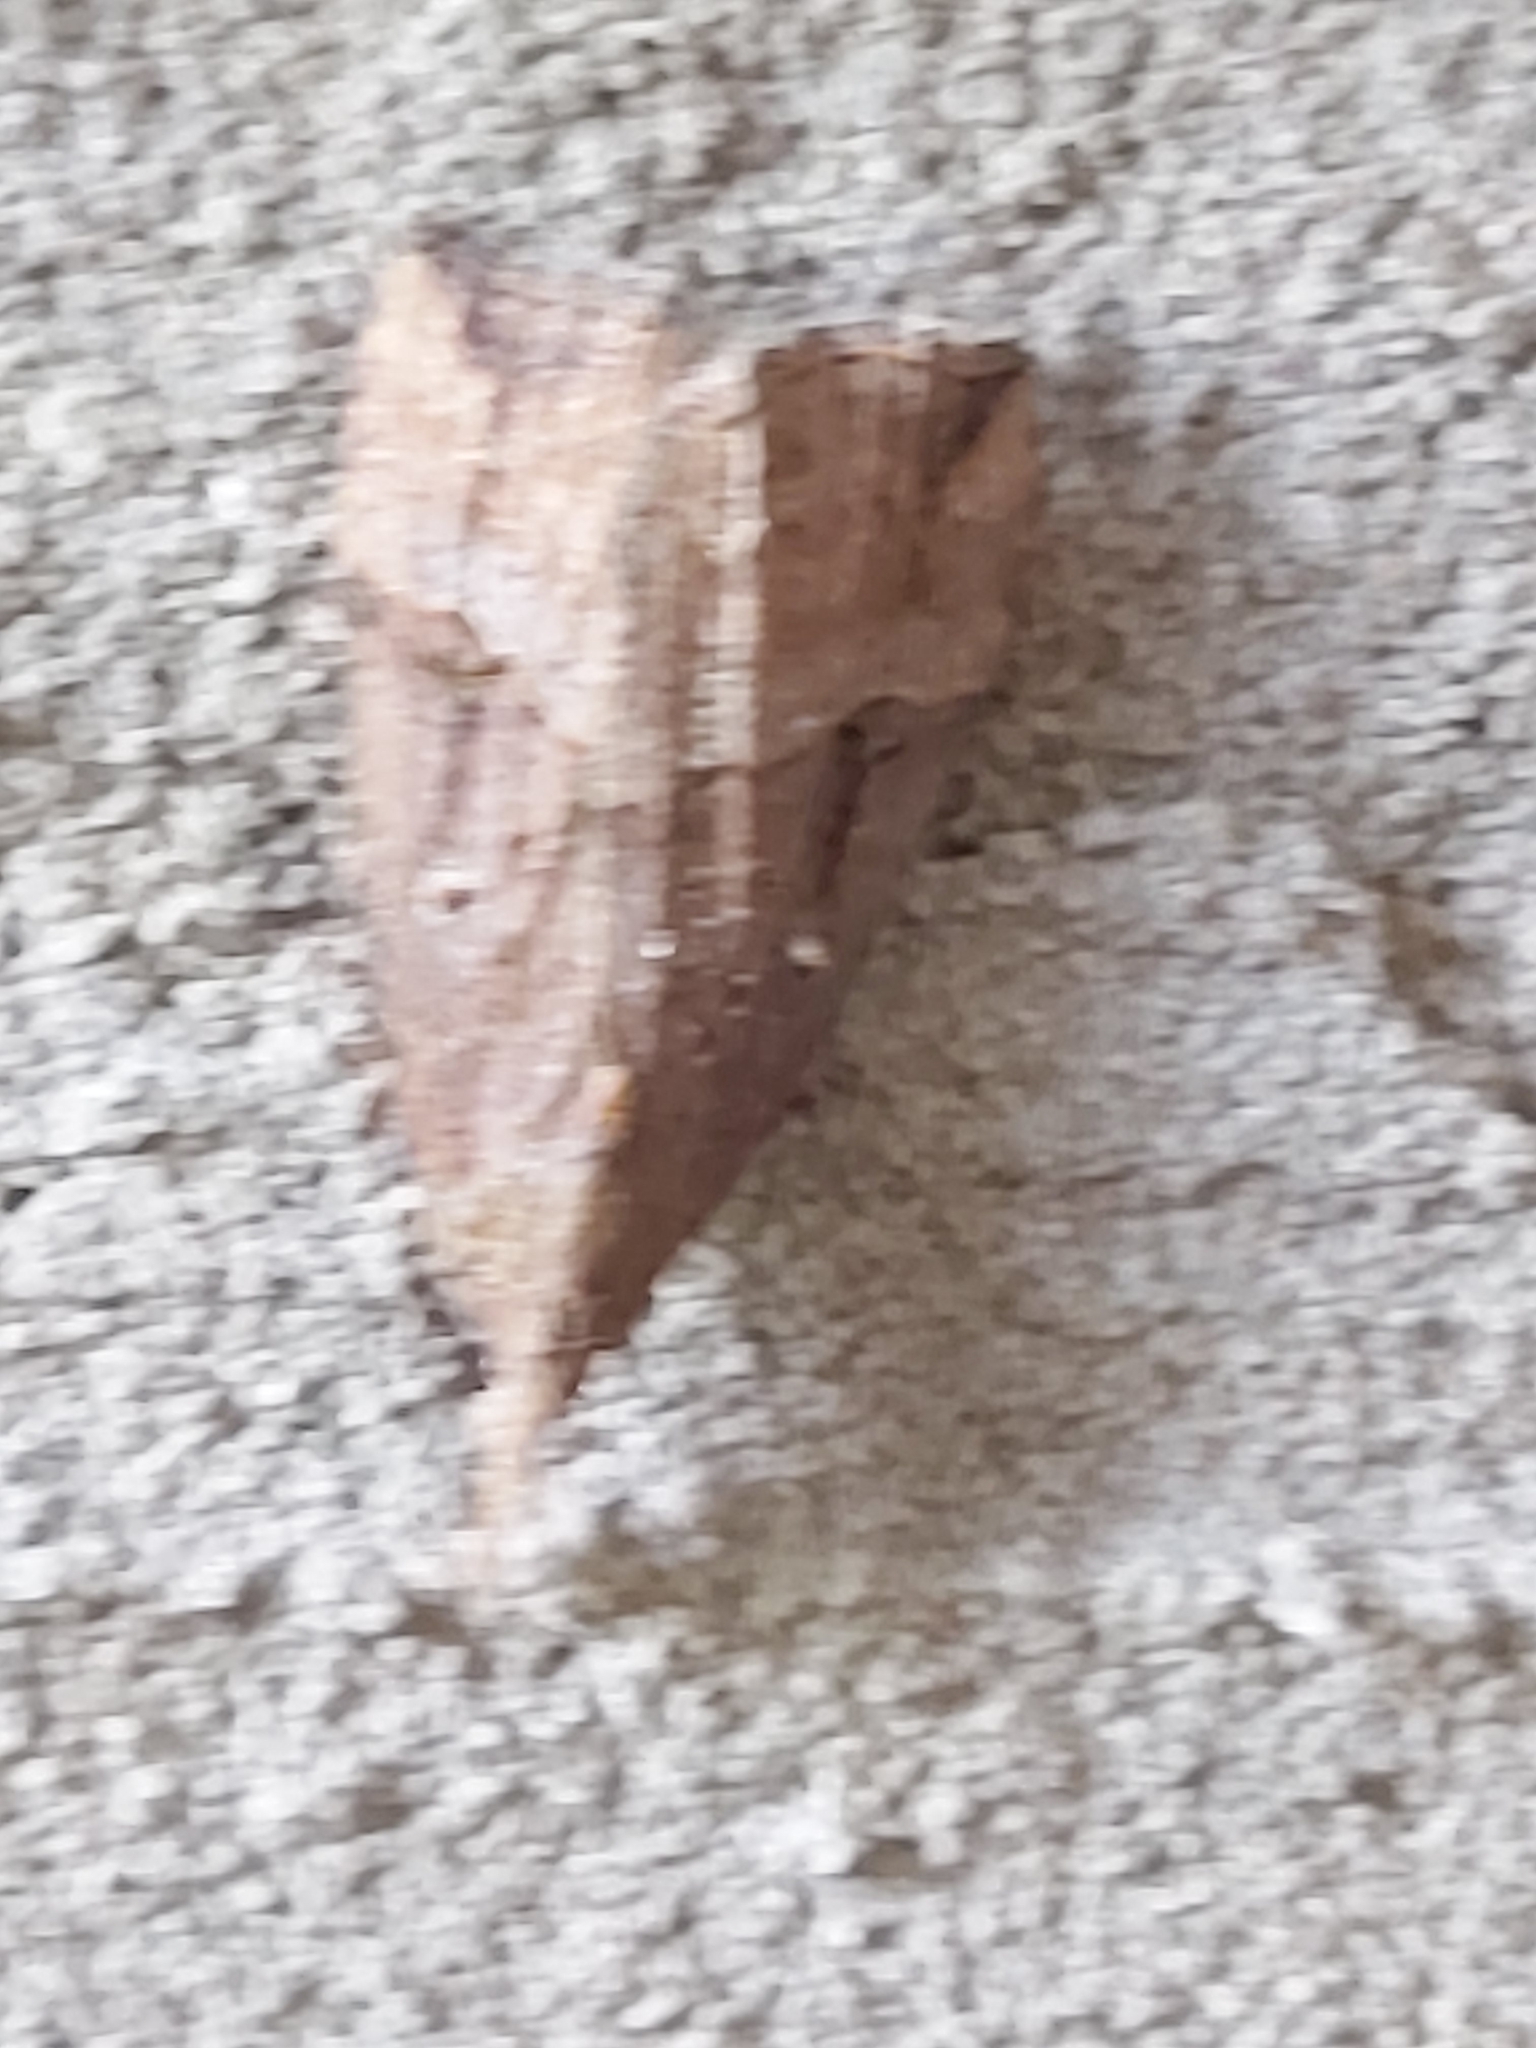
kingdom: Animalia
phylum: Arthropoda
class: Insecta
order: Lepidoptera
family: Erebidae
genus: Hypena
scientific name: Hypena rostralis
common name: Buttoned snout
